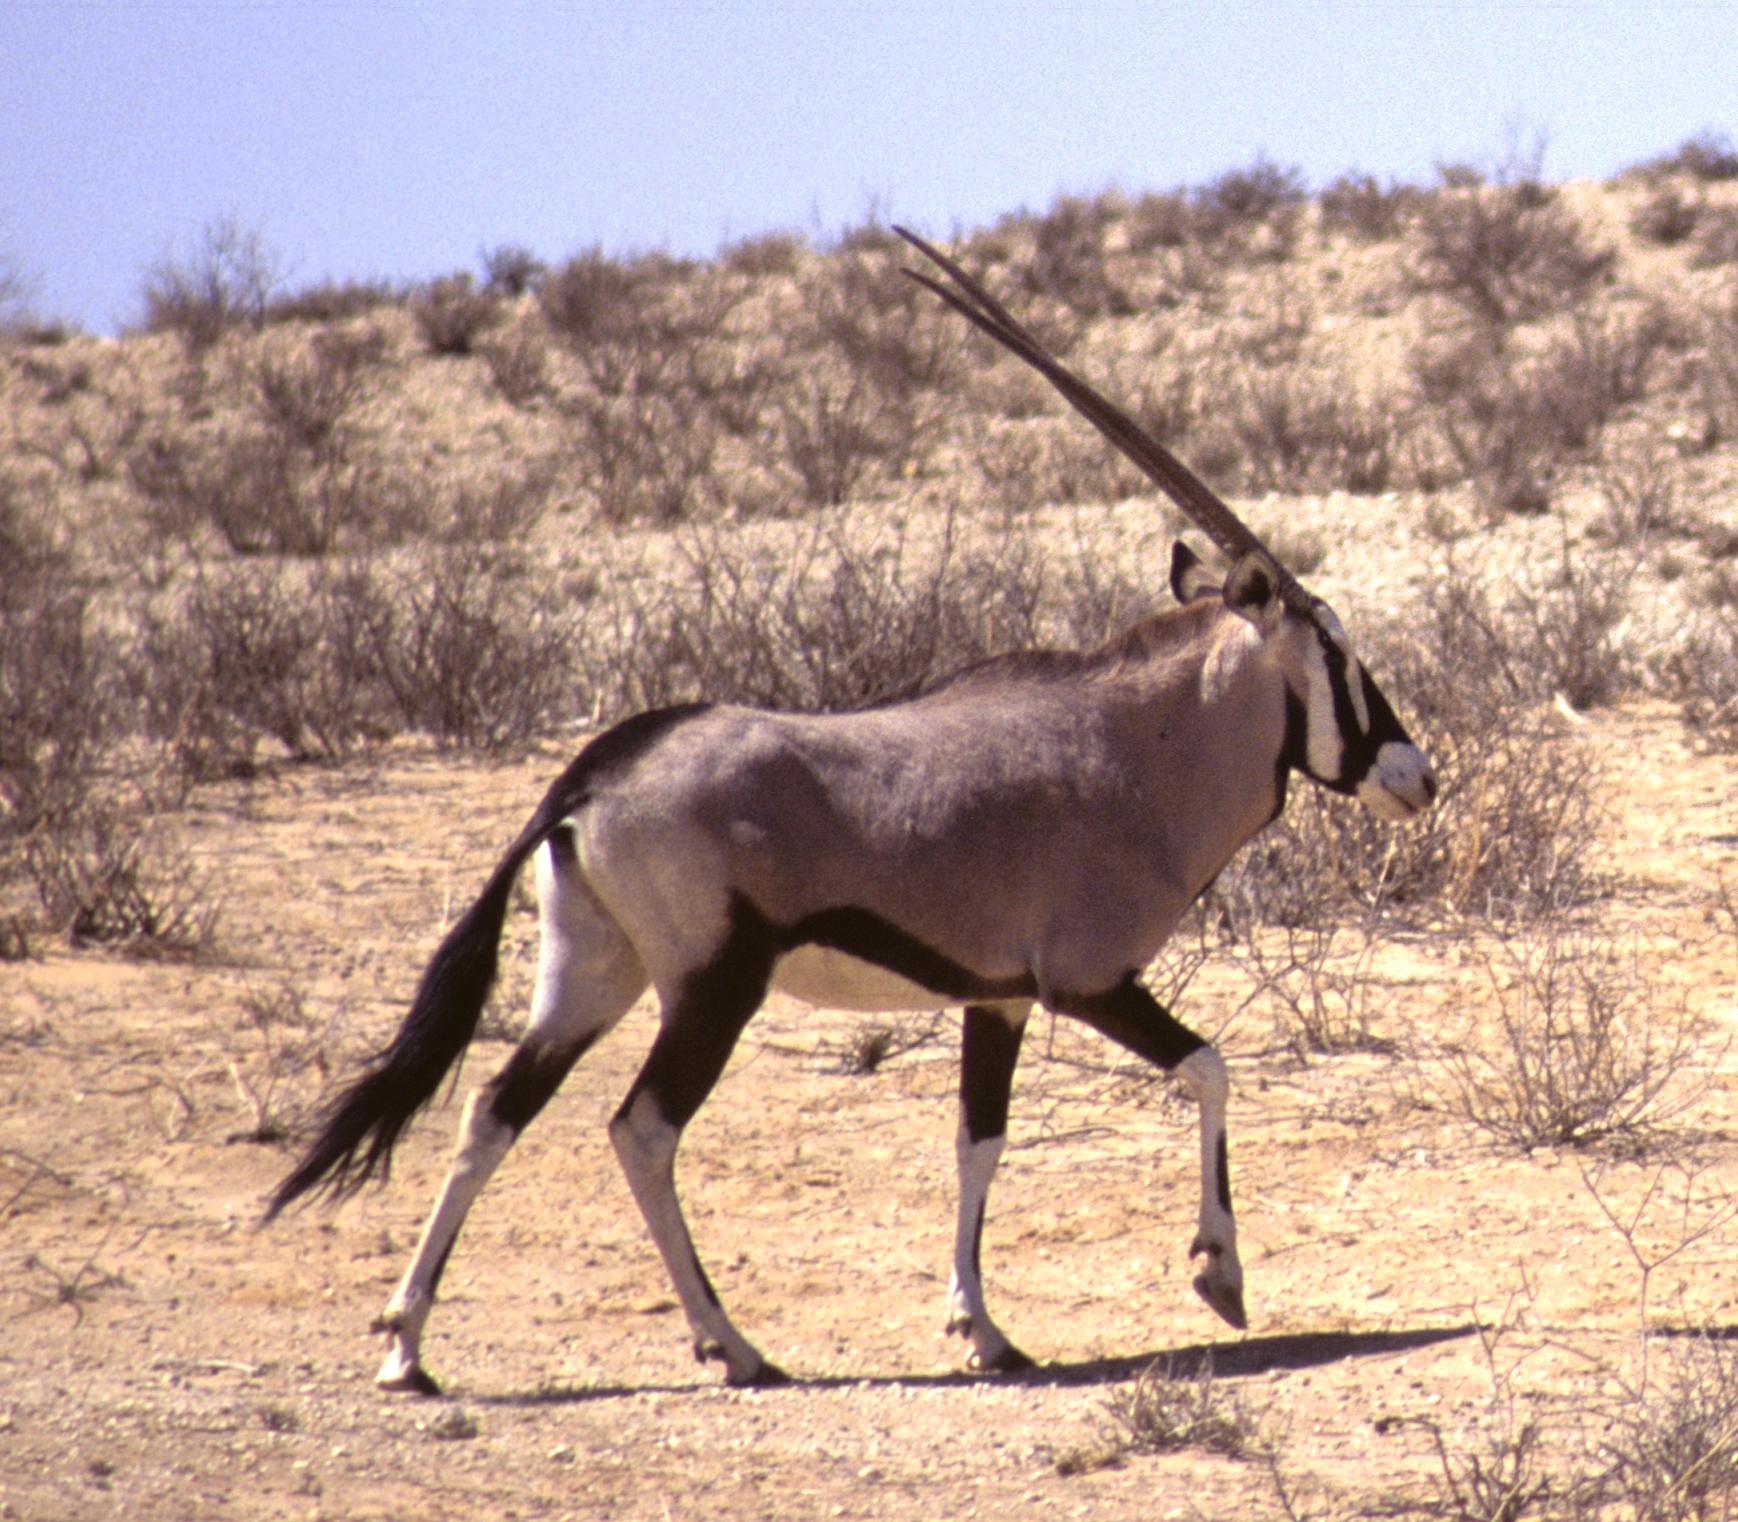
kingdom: Animalia
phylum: Chordata
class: Mammalia
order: Artiodactyla
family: Bovidae
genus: Oryx
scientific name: Oryx gazella
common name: Gemsbok
